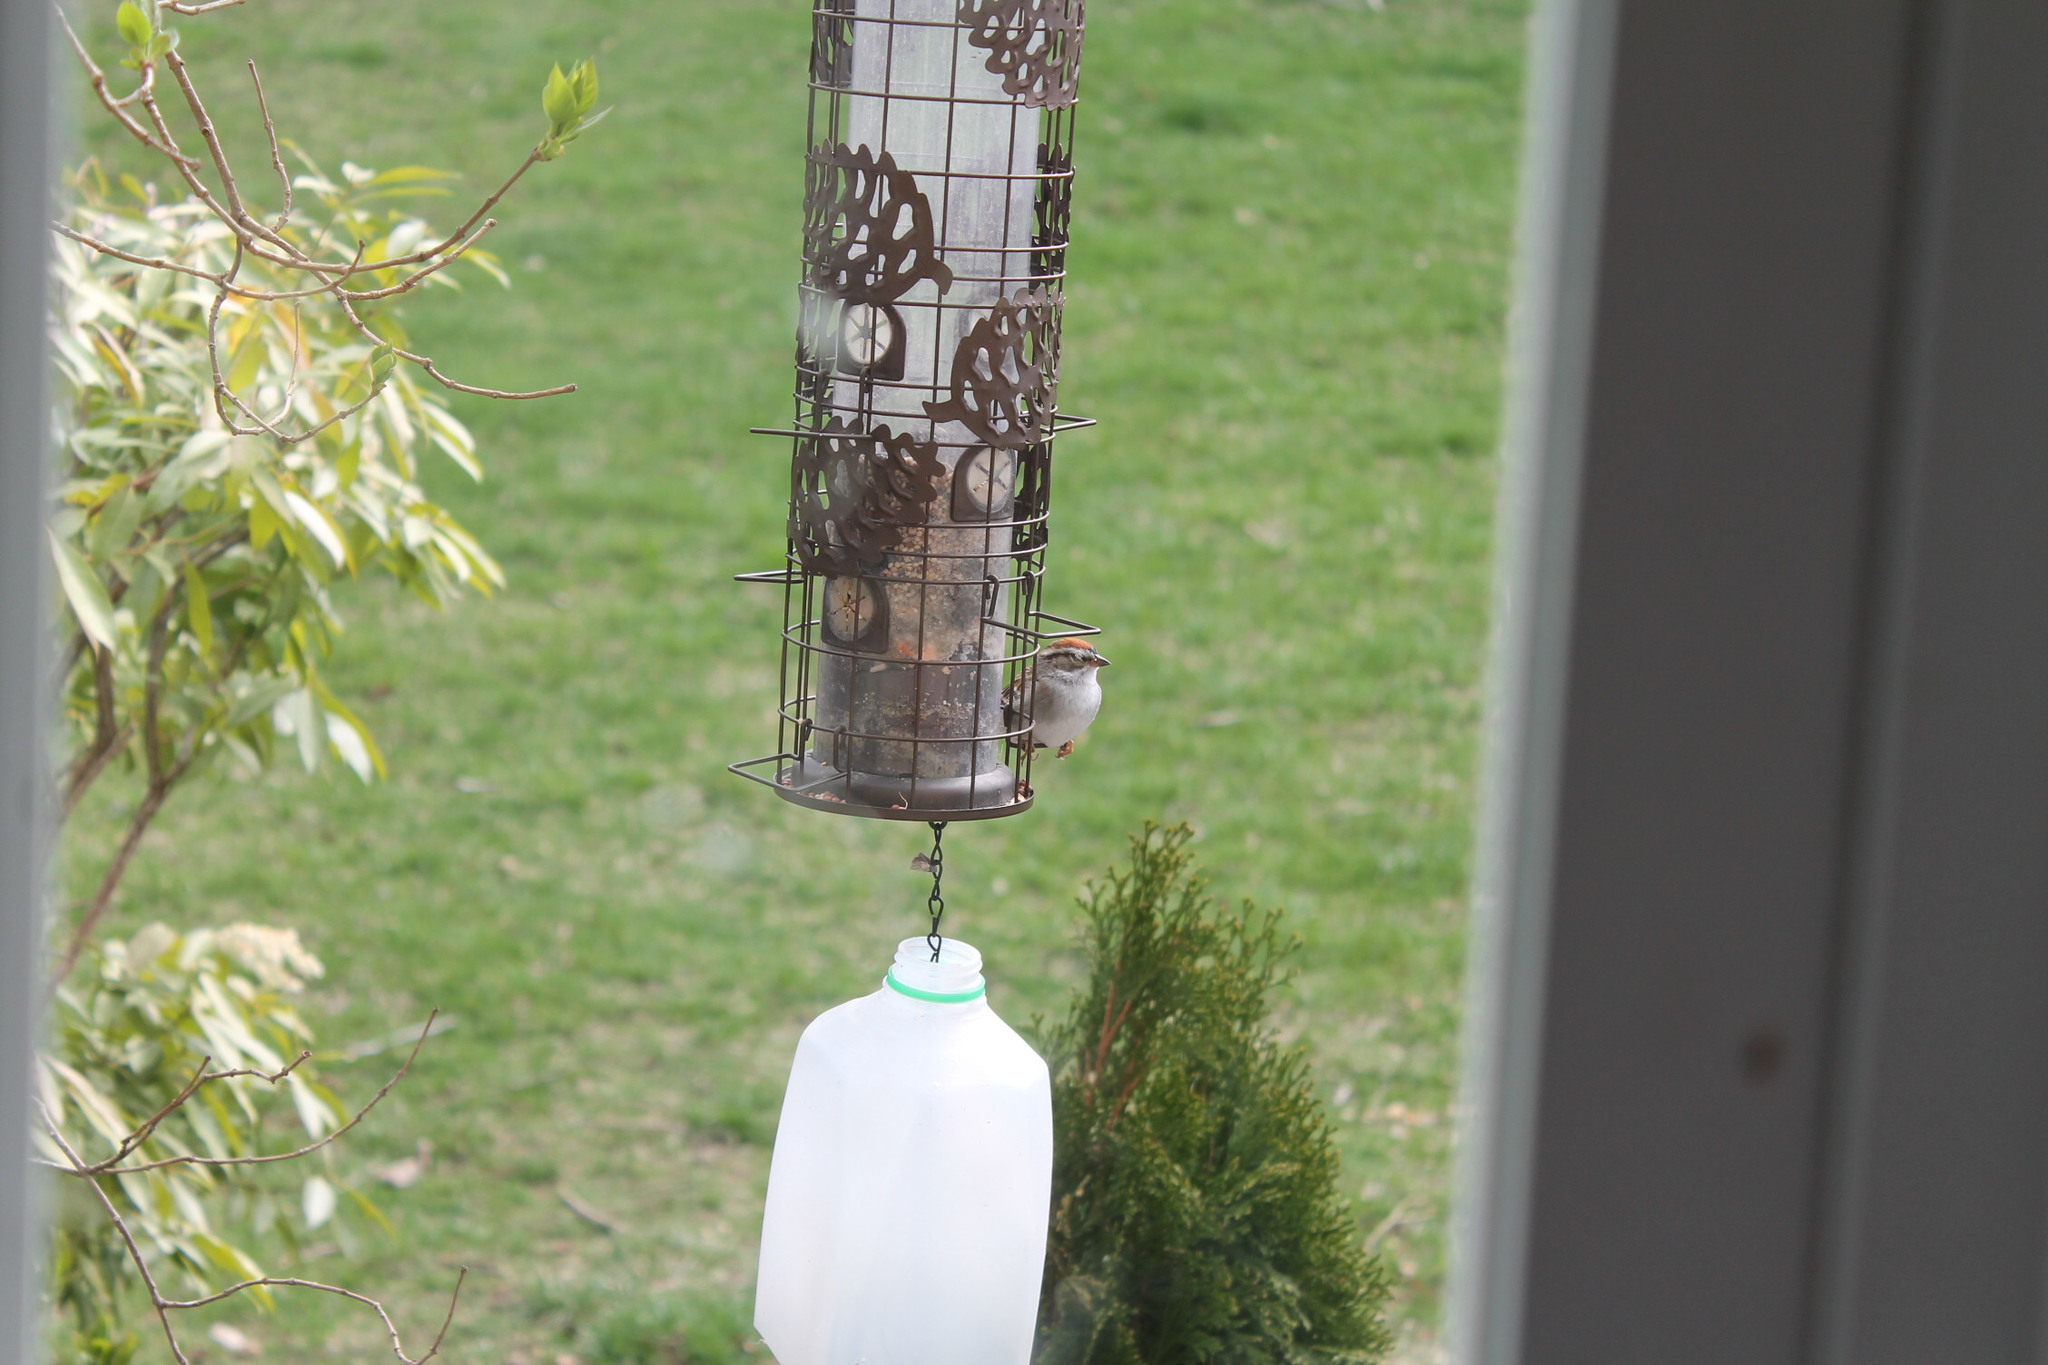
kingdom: Animalia
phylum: Chordata
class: Aves
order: Passeriformes
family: Passerellidae
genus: Spizella
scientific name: Spizella passerina
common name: Chipping sparrow
